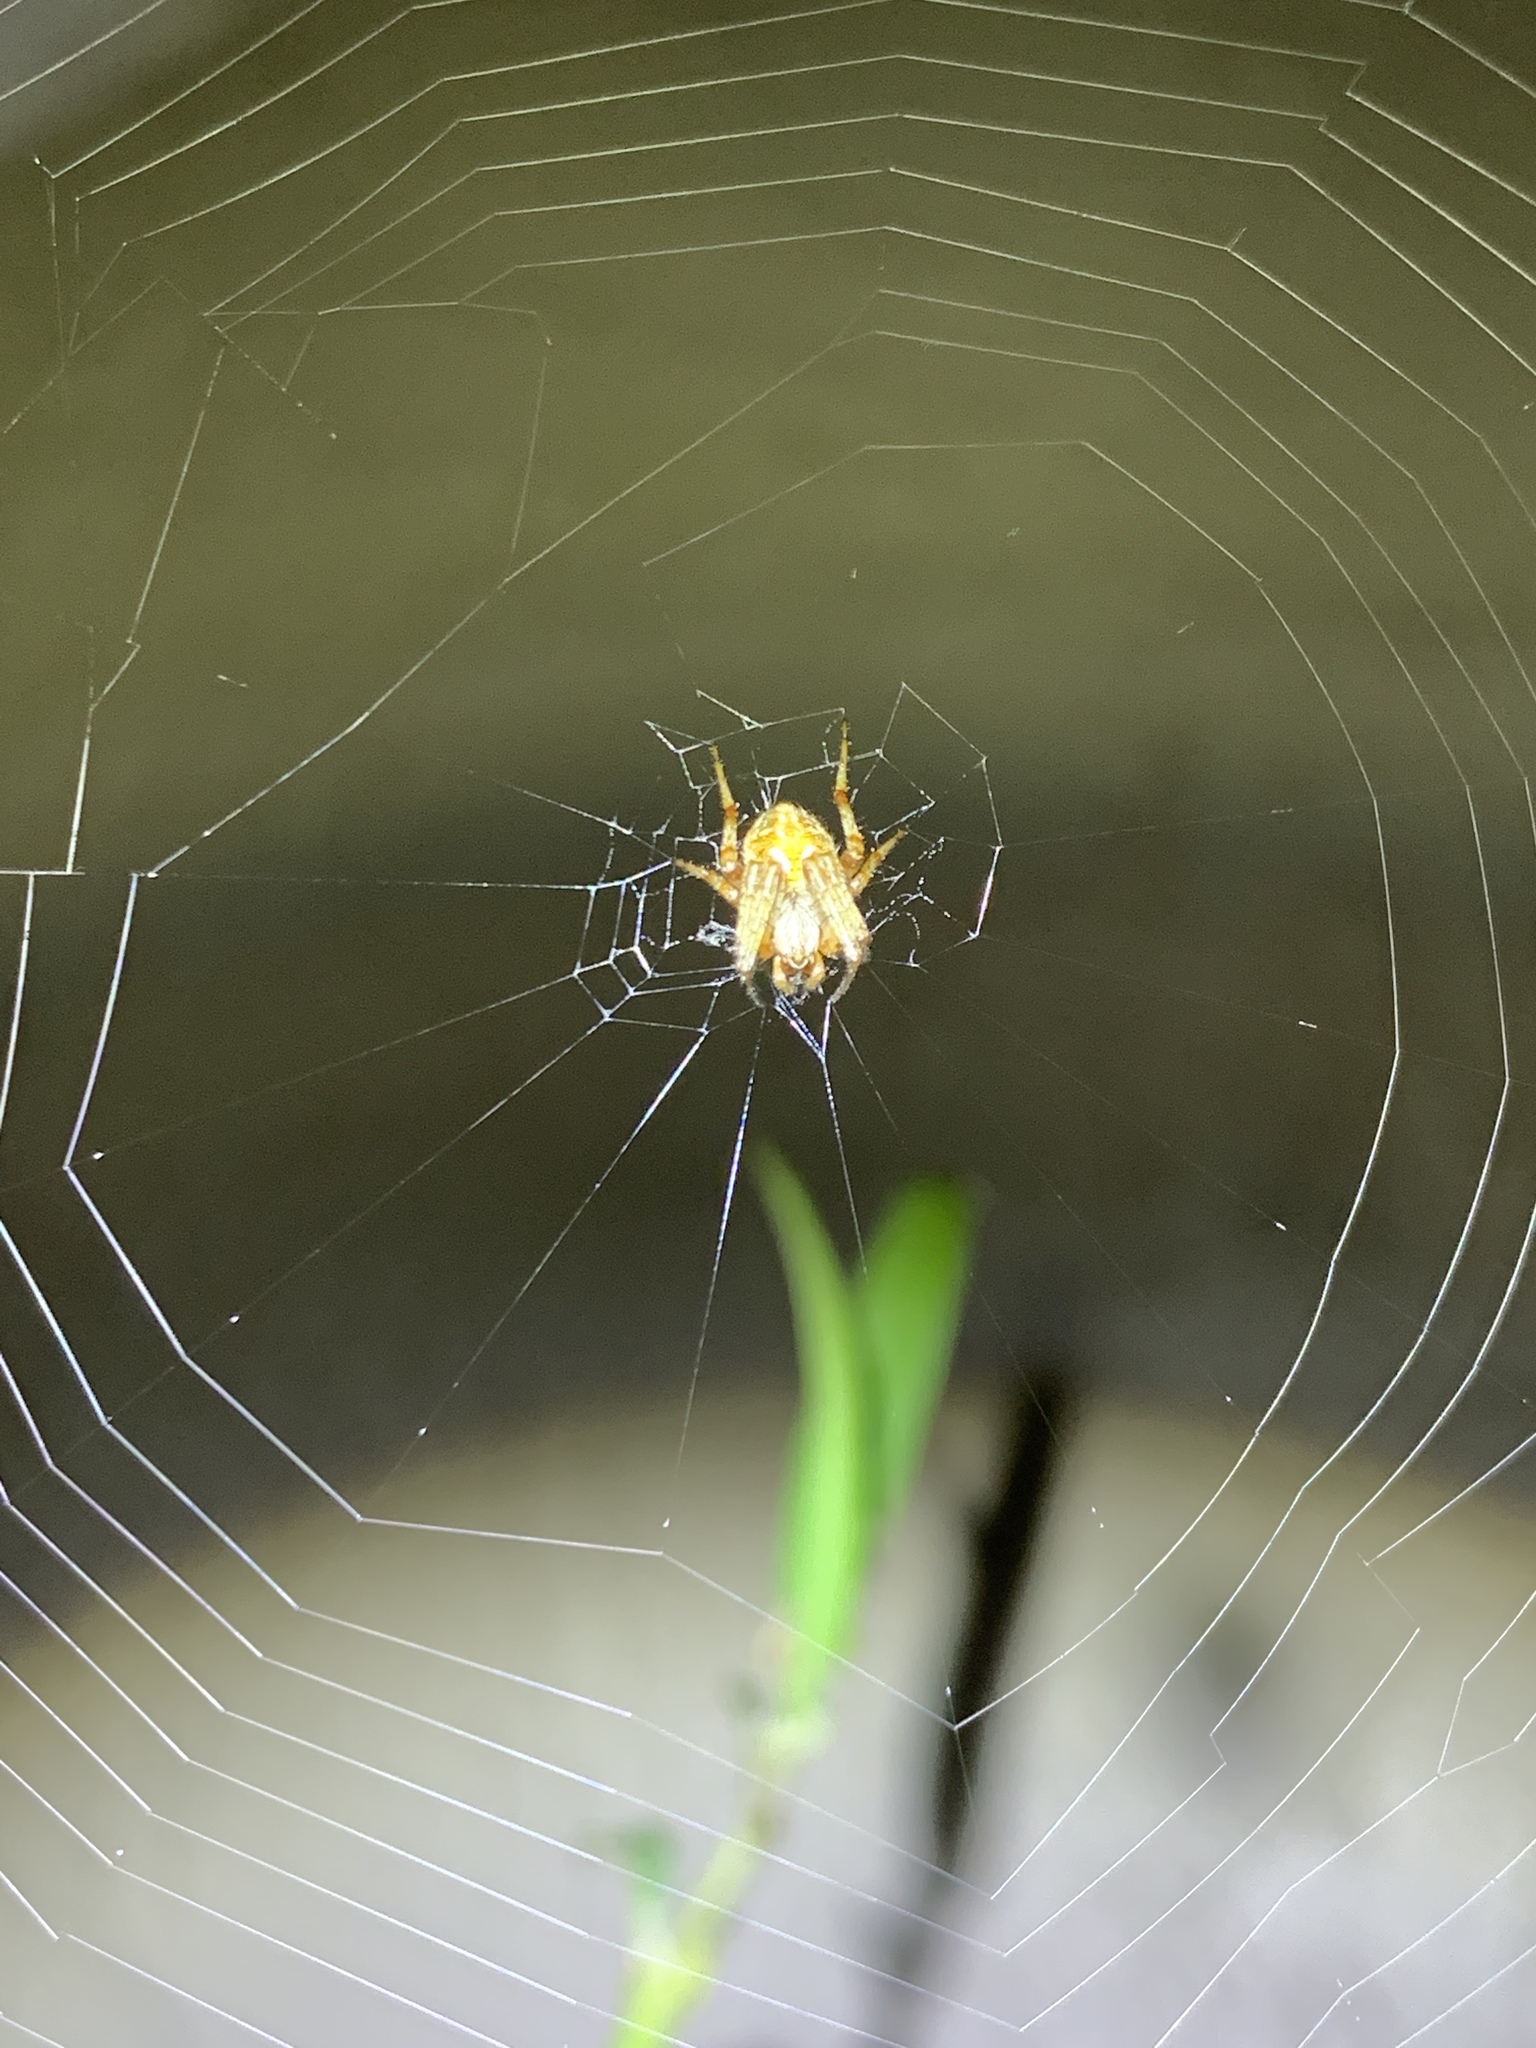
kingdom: Animalia
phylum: Arthropoda
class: Arachnida
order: Araneae
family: Araneidae
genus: Neoscona
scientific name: Neoscona arabesca
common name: Orb weavers
